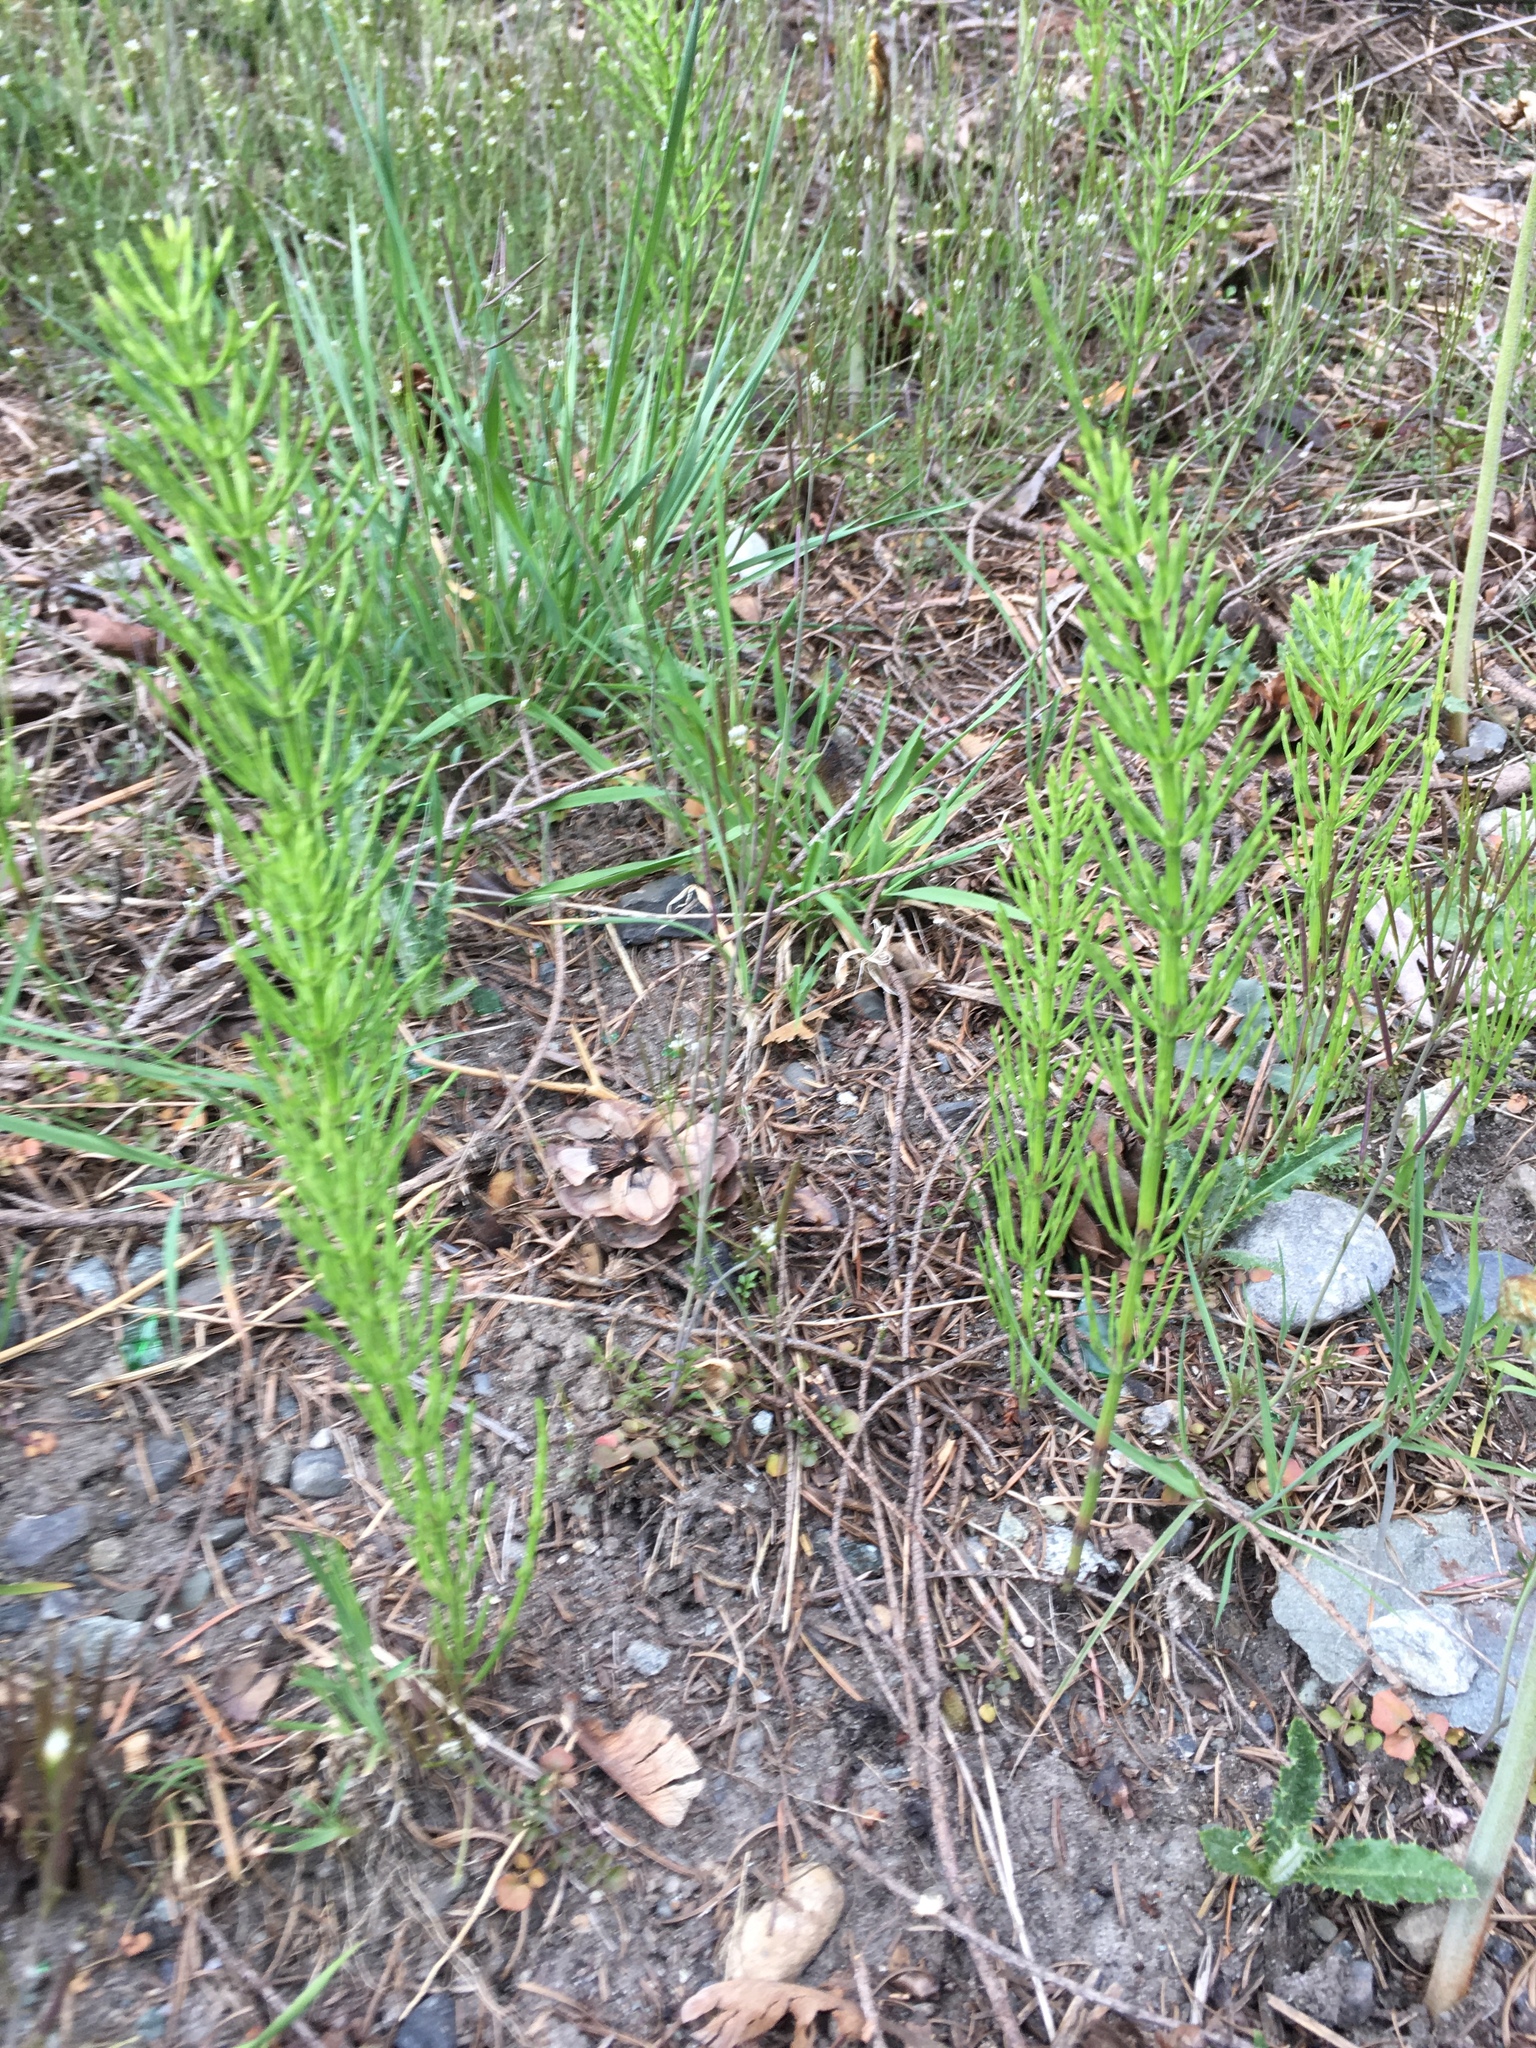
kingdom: Plantae
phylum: Tracheophyta
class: Polypodiopsida
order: Equisetales
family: Equisetaceae
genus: Equisetum
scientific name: Equisetum arvense
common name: Field horsetail
